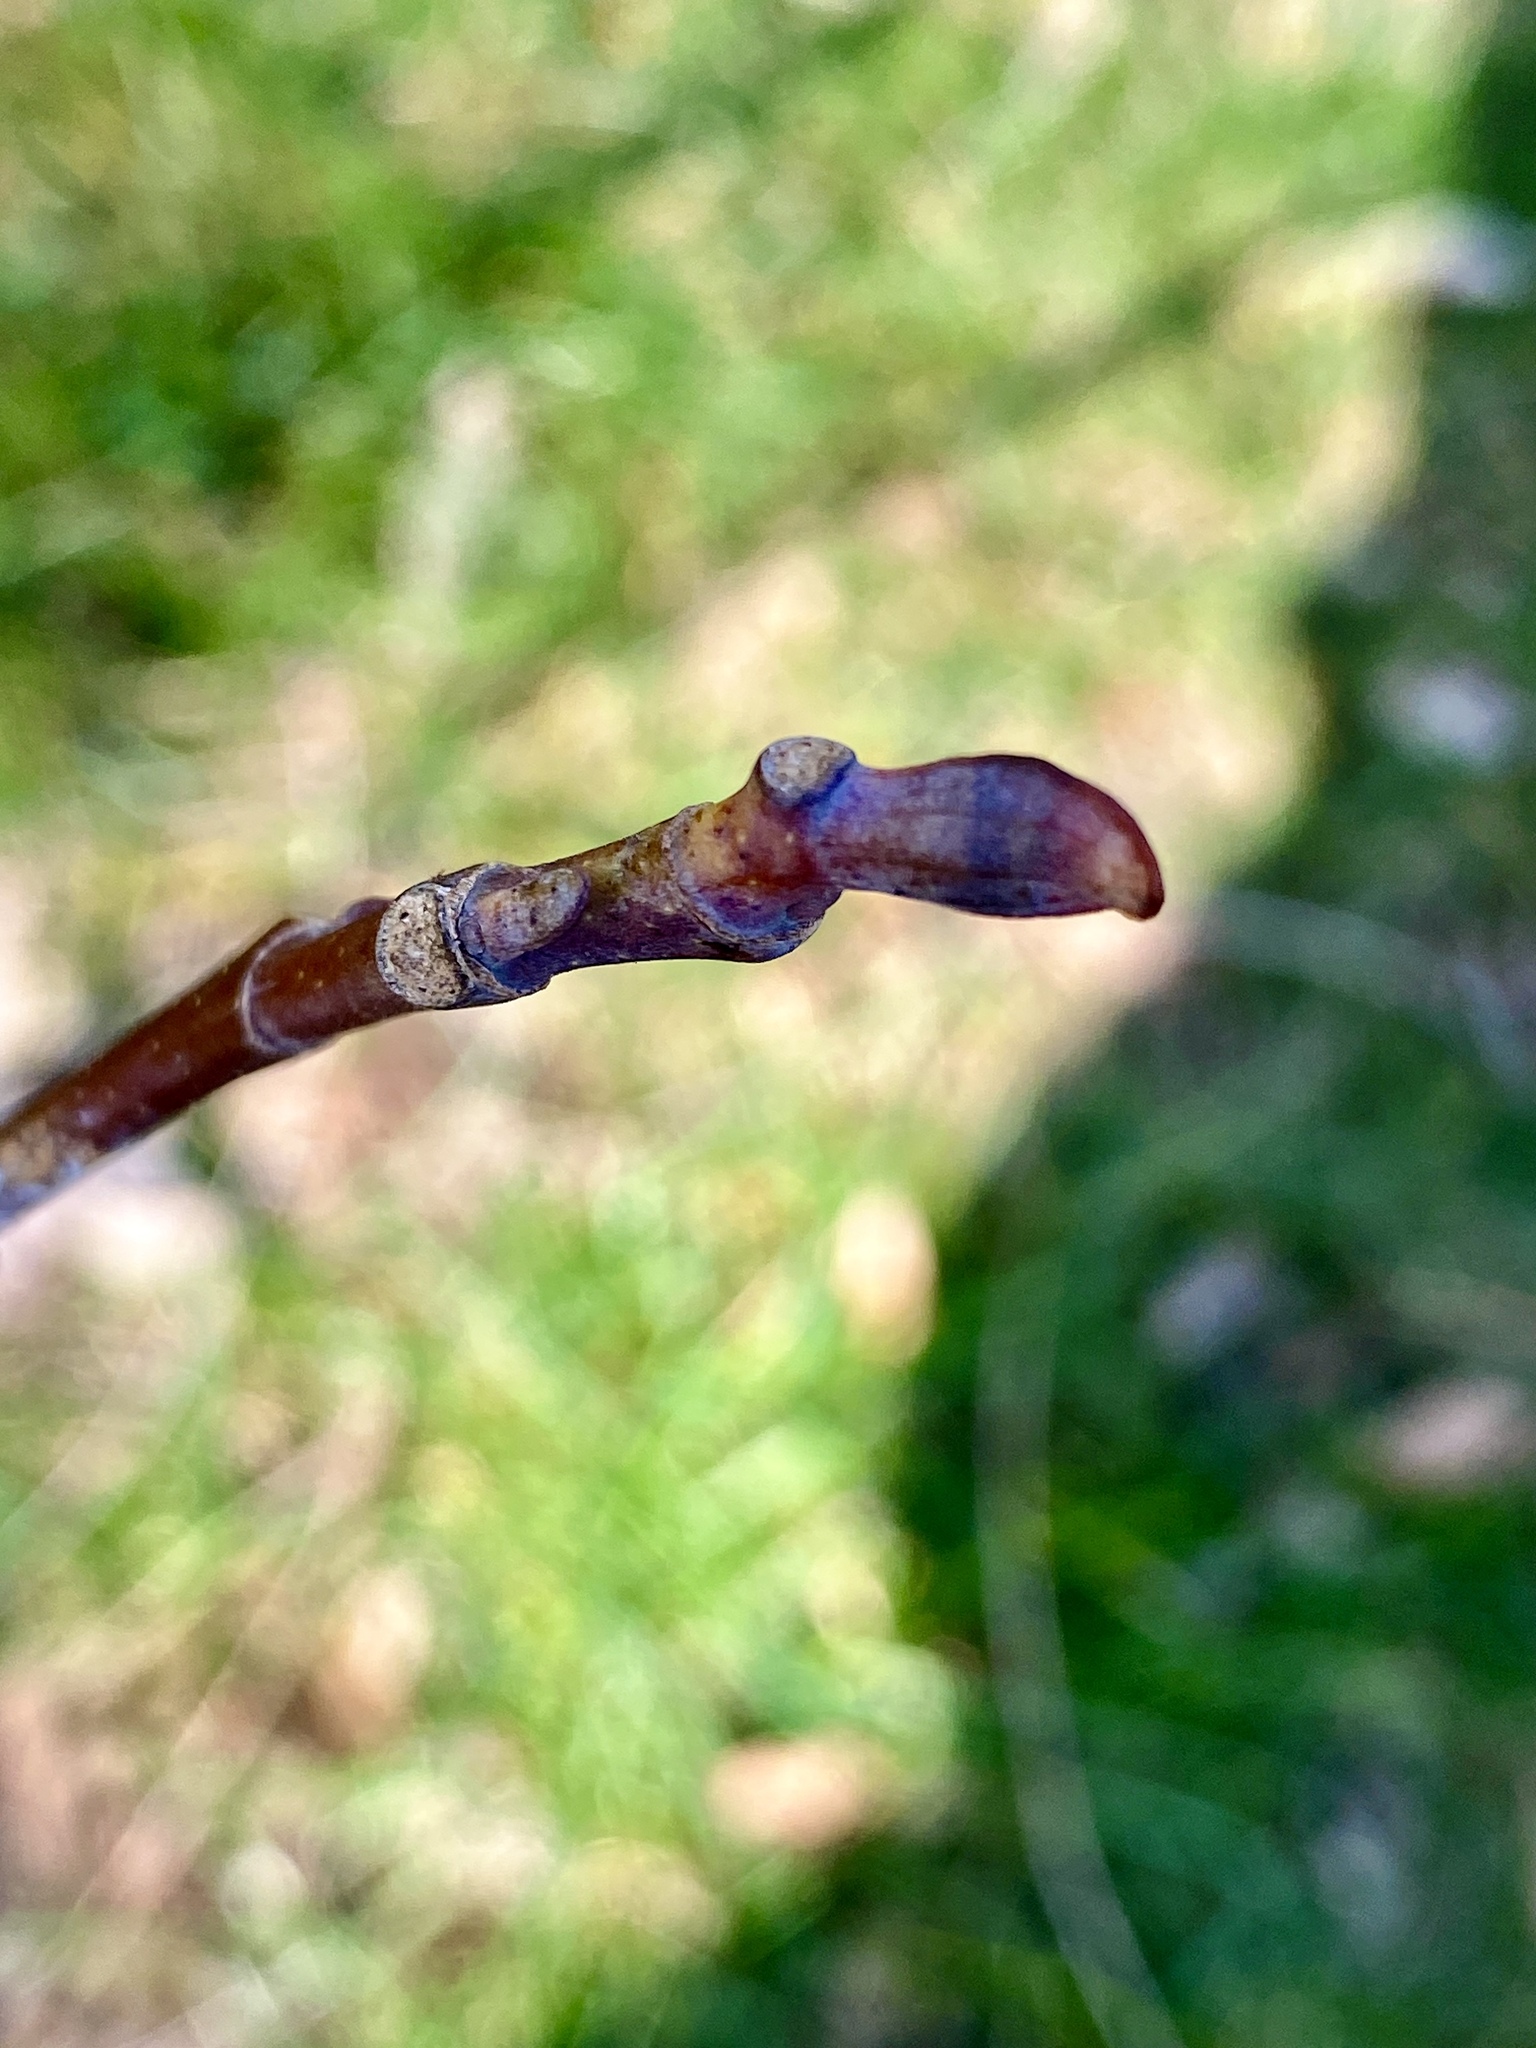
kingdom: Plantae
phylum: Tracheophyta
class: Magnoliopsida
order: Magnoliales
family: Magnoliaceae
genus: Liriodendron
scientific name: Liriodendron tulipifera
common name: Tulip tree
